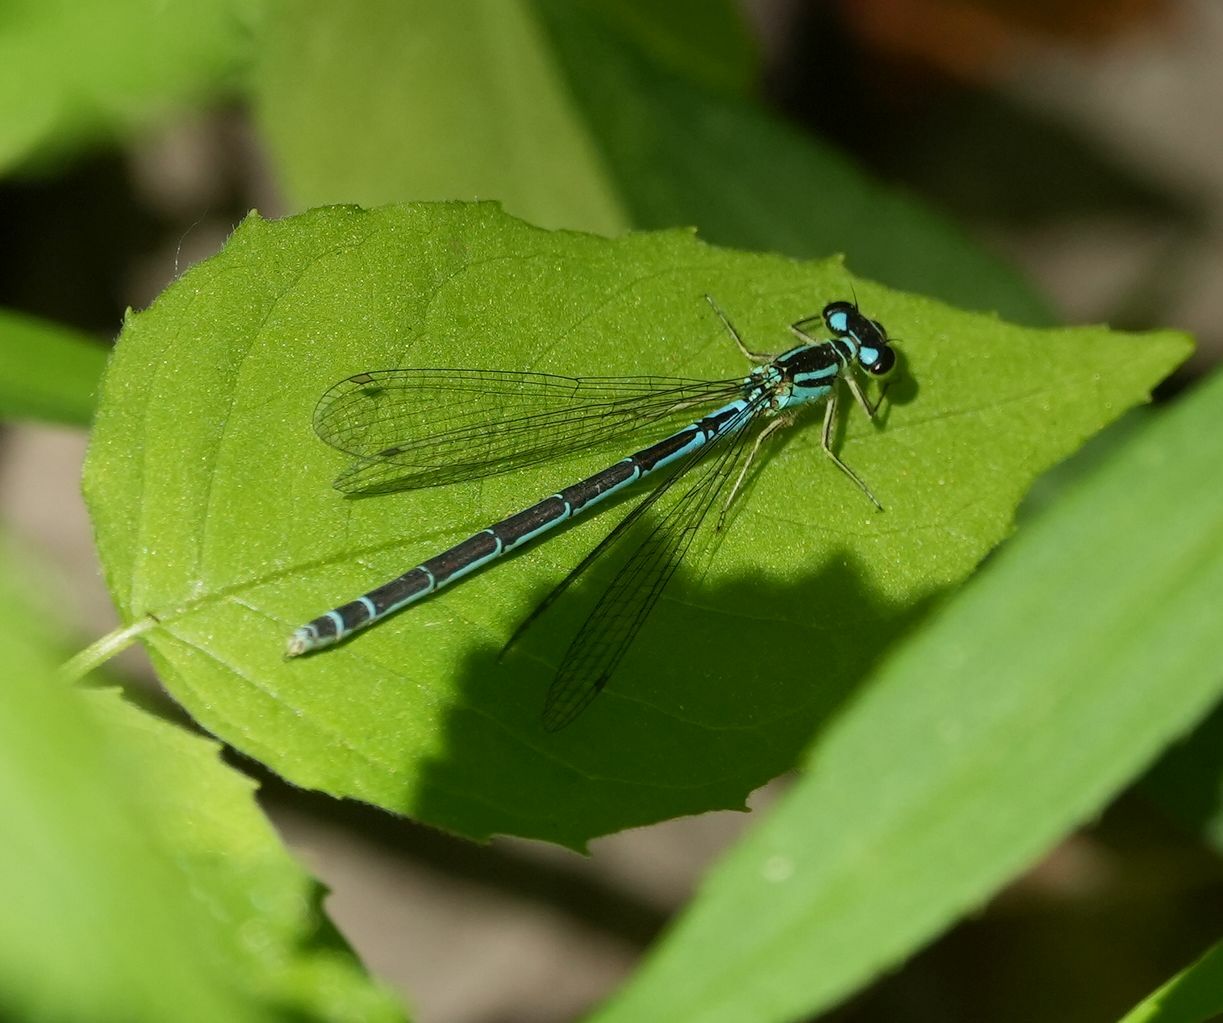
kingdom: Animalia
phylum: Arthropoda
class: Insecta
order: Odonata
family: Coenagrionidae
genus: Coenagrion
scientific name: Coenagrion resolutum
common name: Taiga bluet
